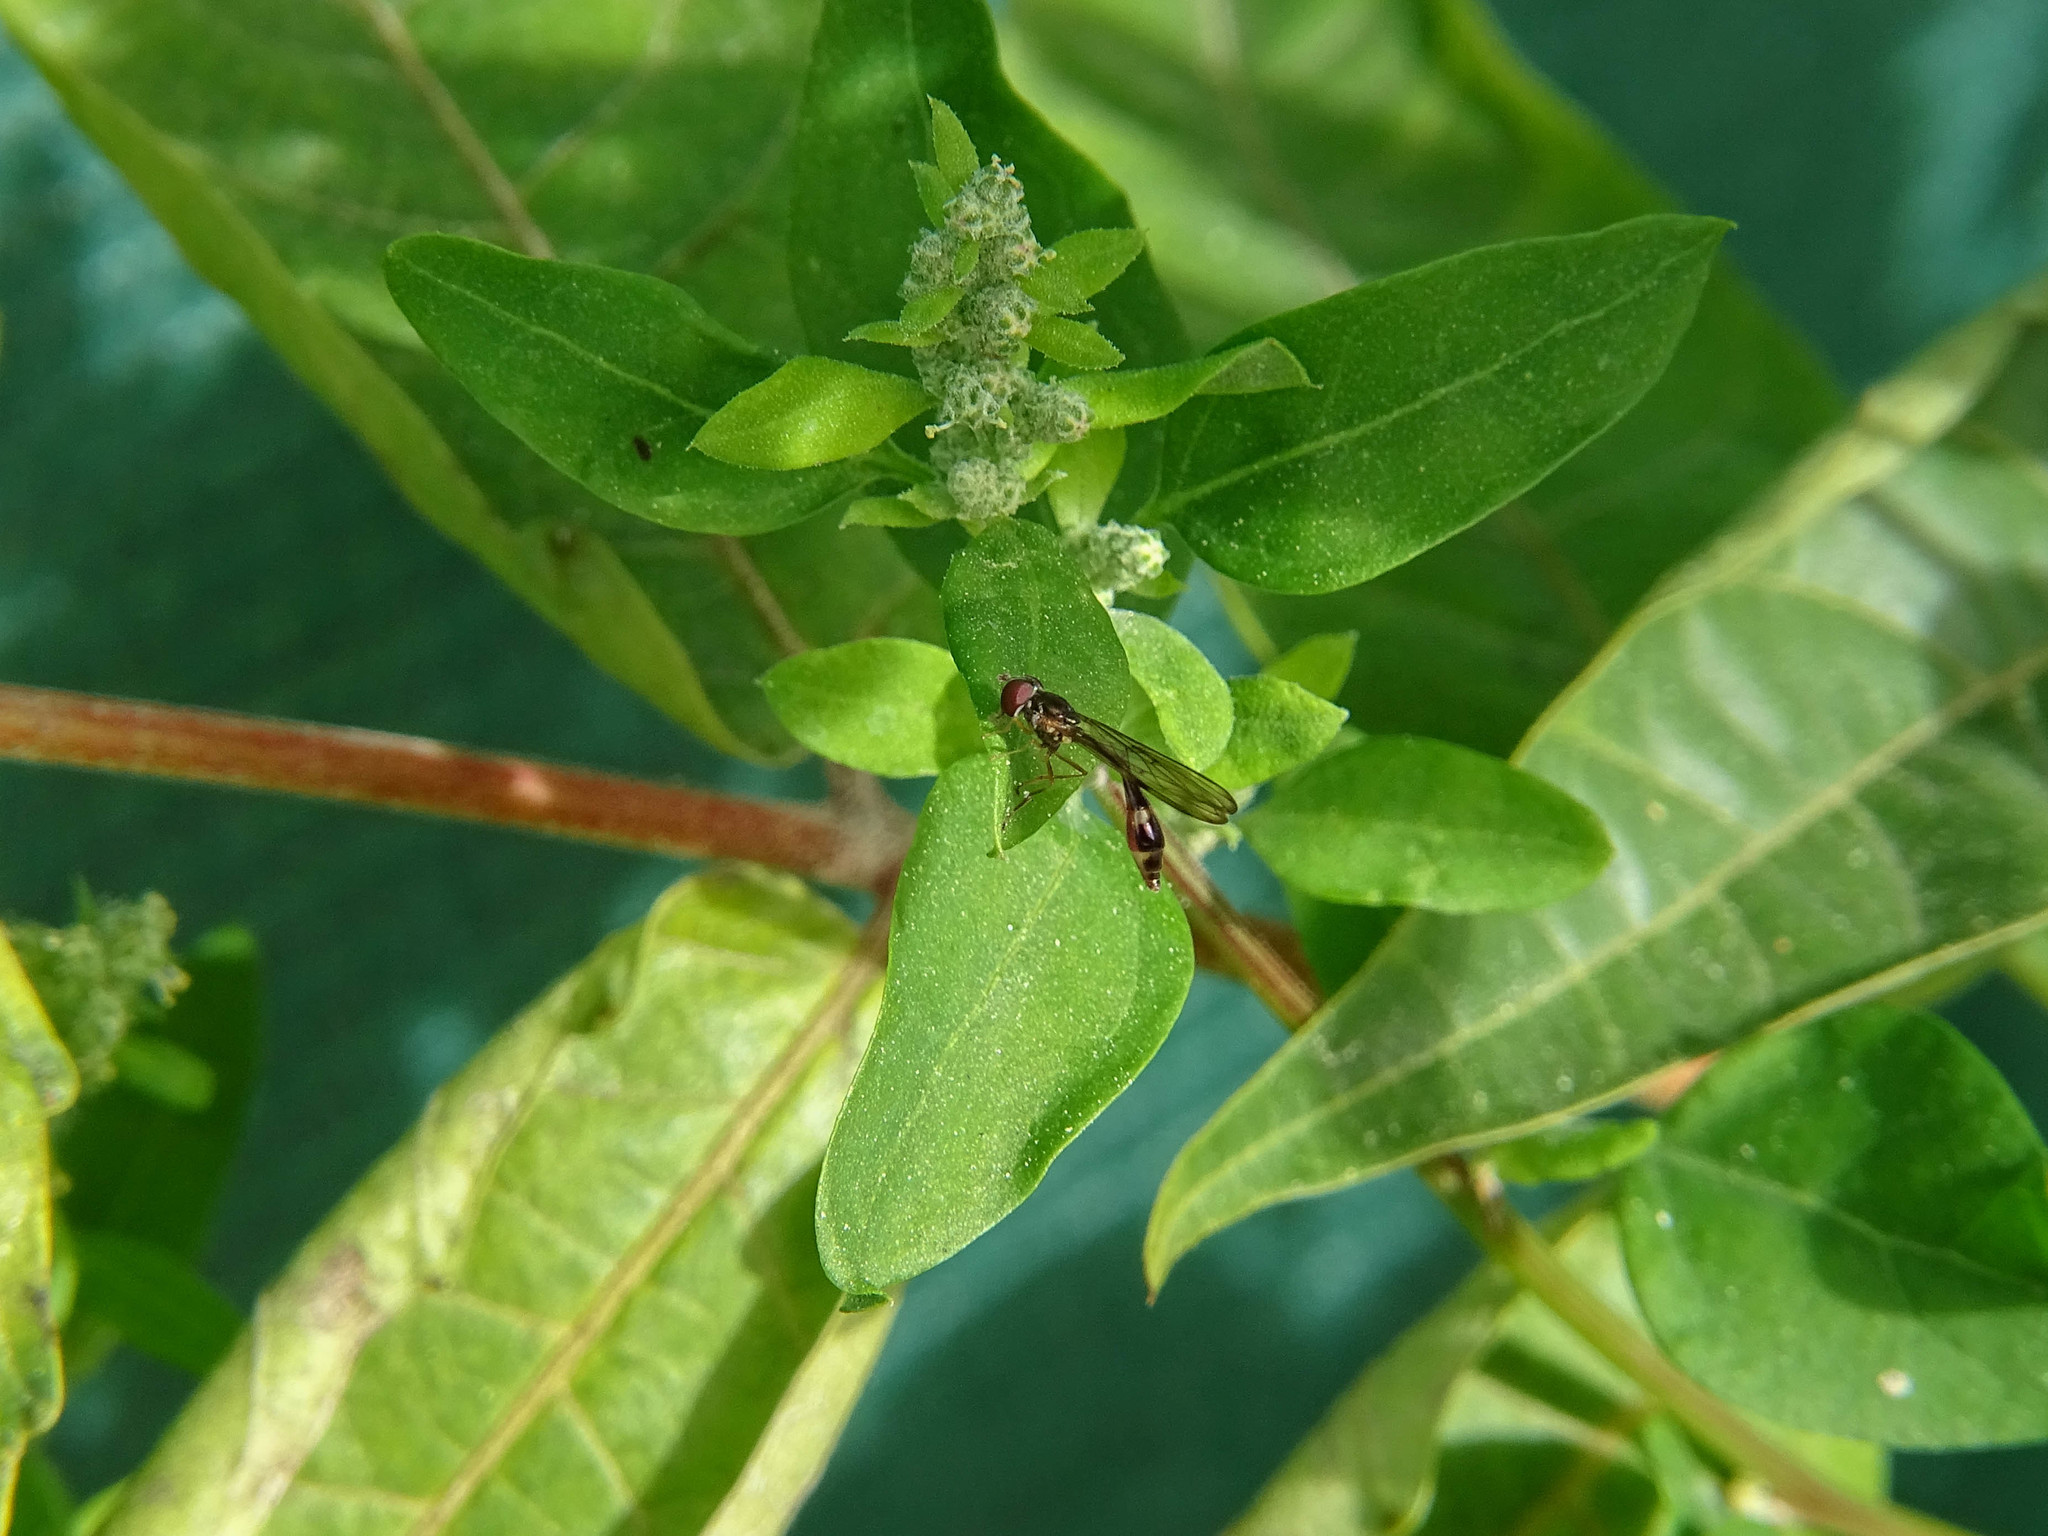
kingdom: Animalia
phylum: Arthropoda
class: Insecta
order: Diptera
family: Syrphidae
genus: Baccha
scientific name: Baccha elongata
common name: Common dainty
